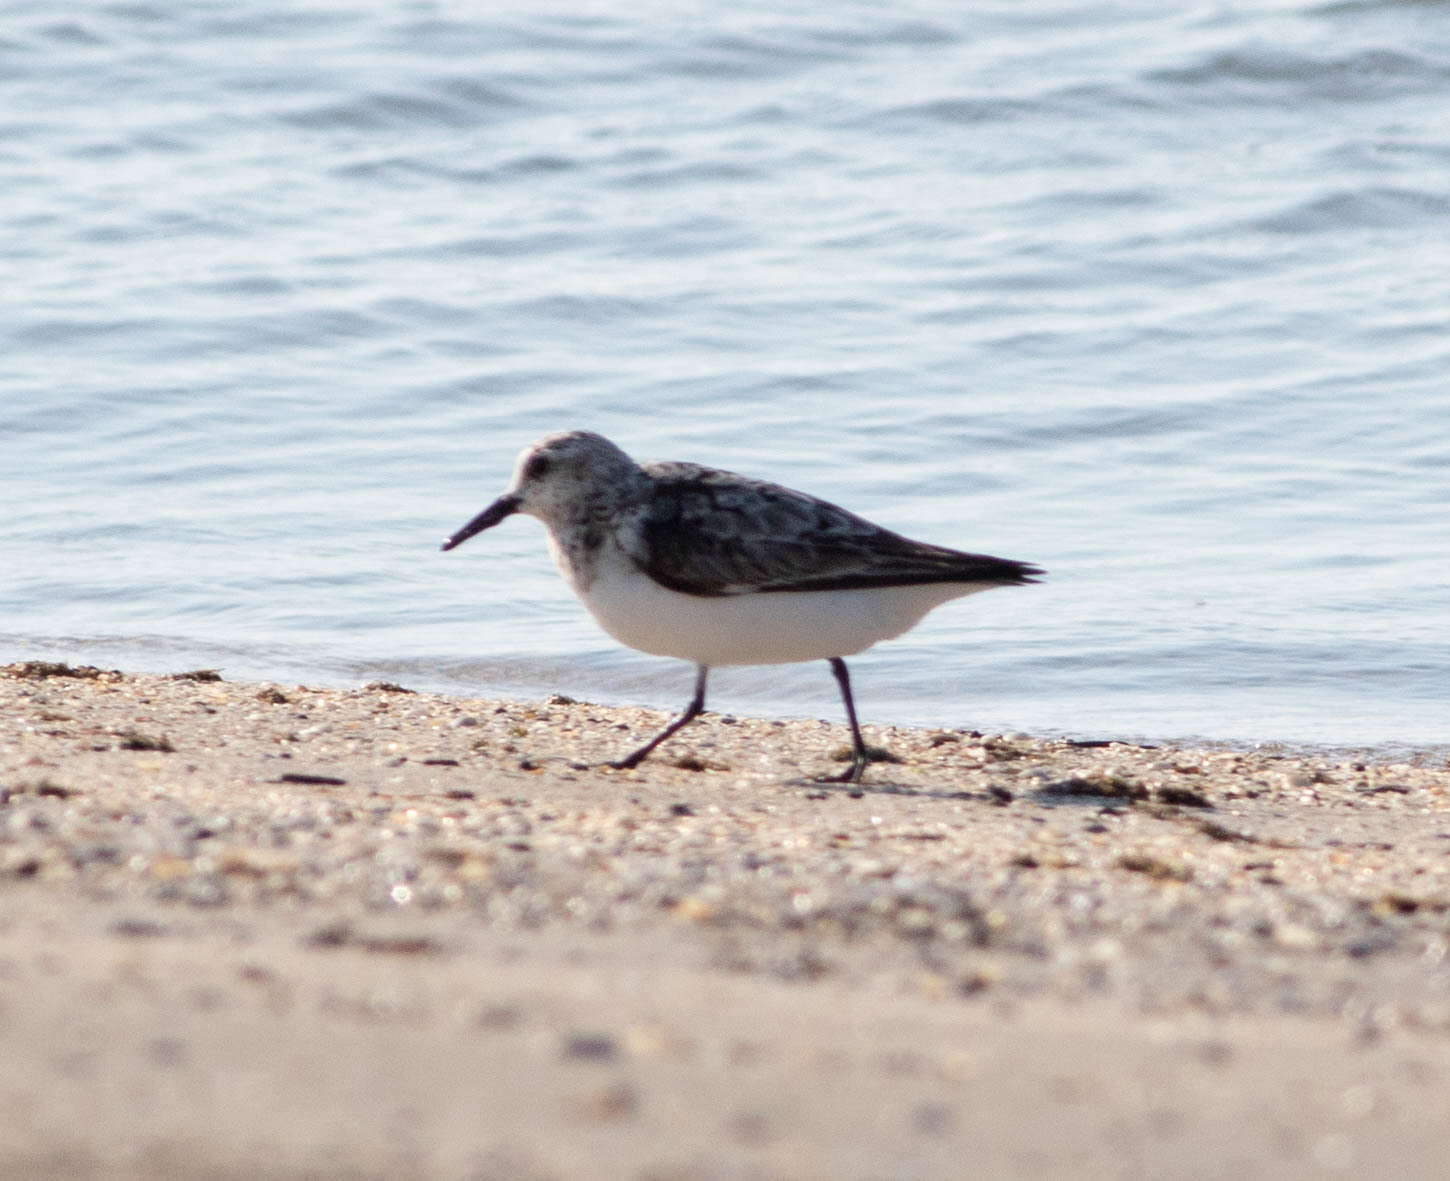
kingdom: Animalia
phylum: Chordata
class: Aves
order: Charadriiformes
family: Scolopacidae
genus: Calidris
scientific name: Calidris alba
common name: Sanderling
